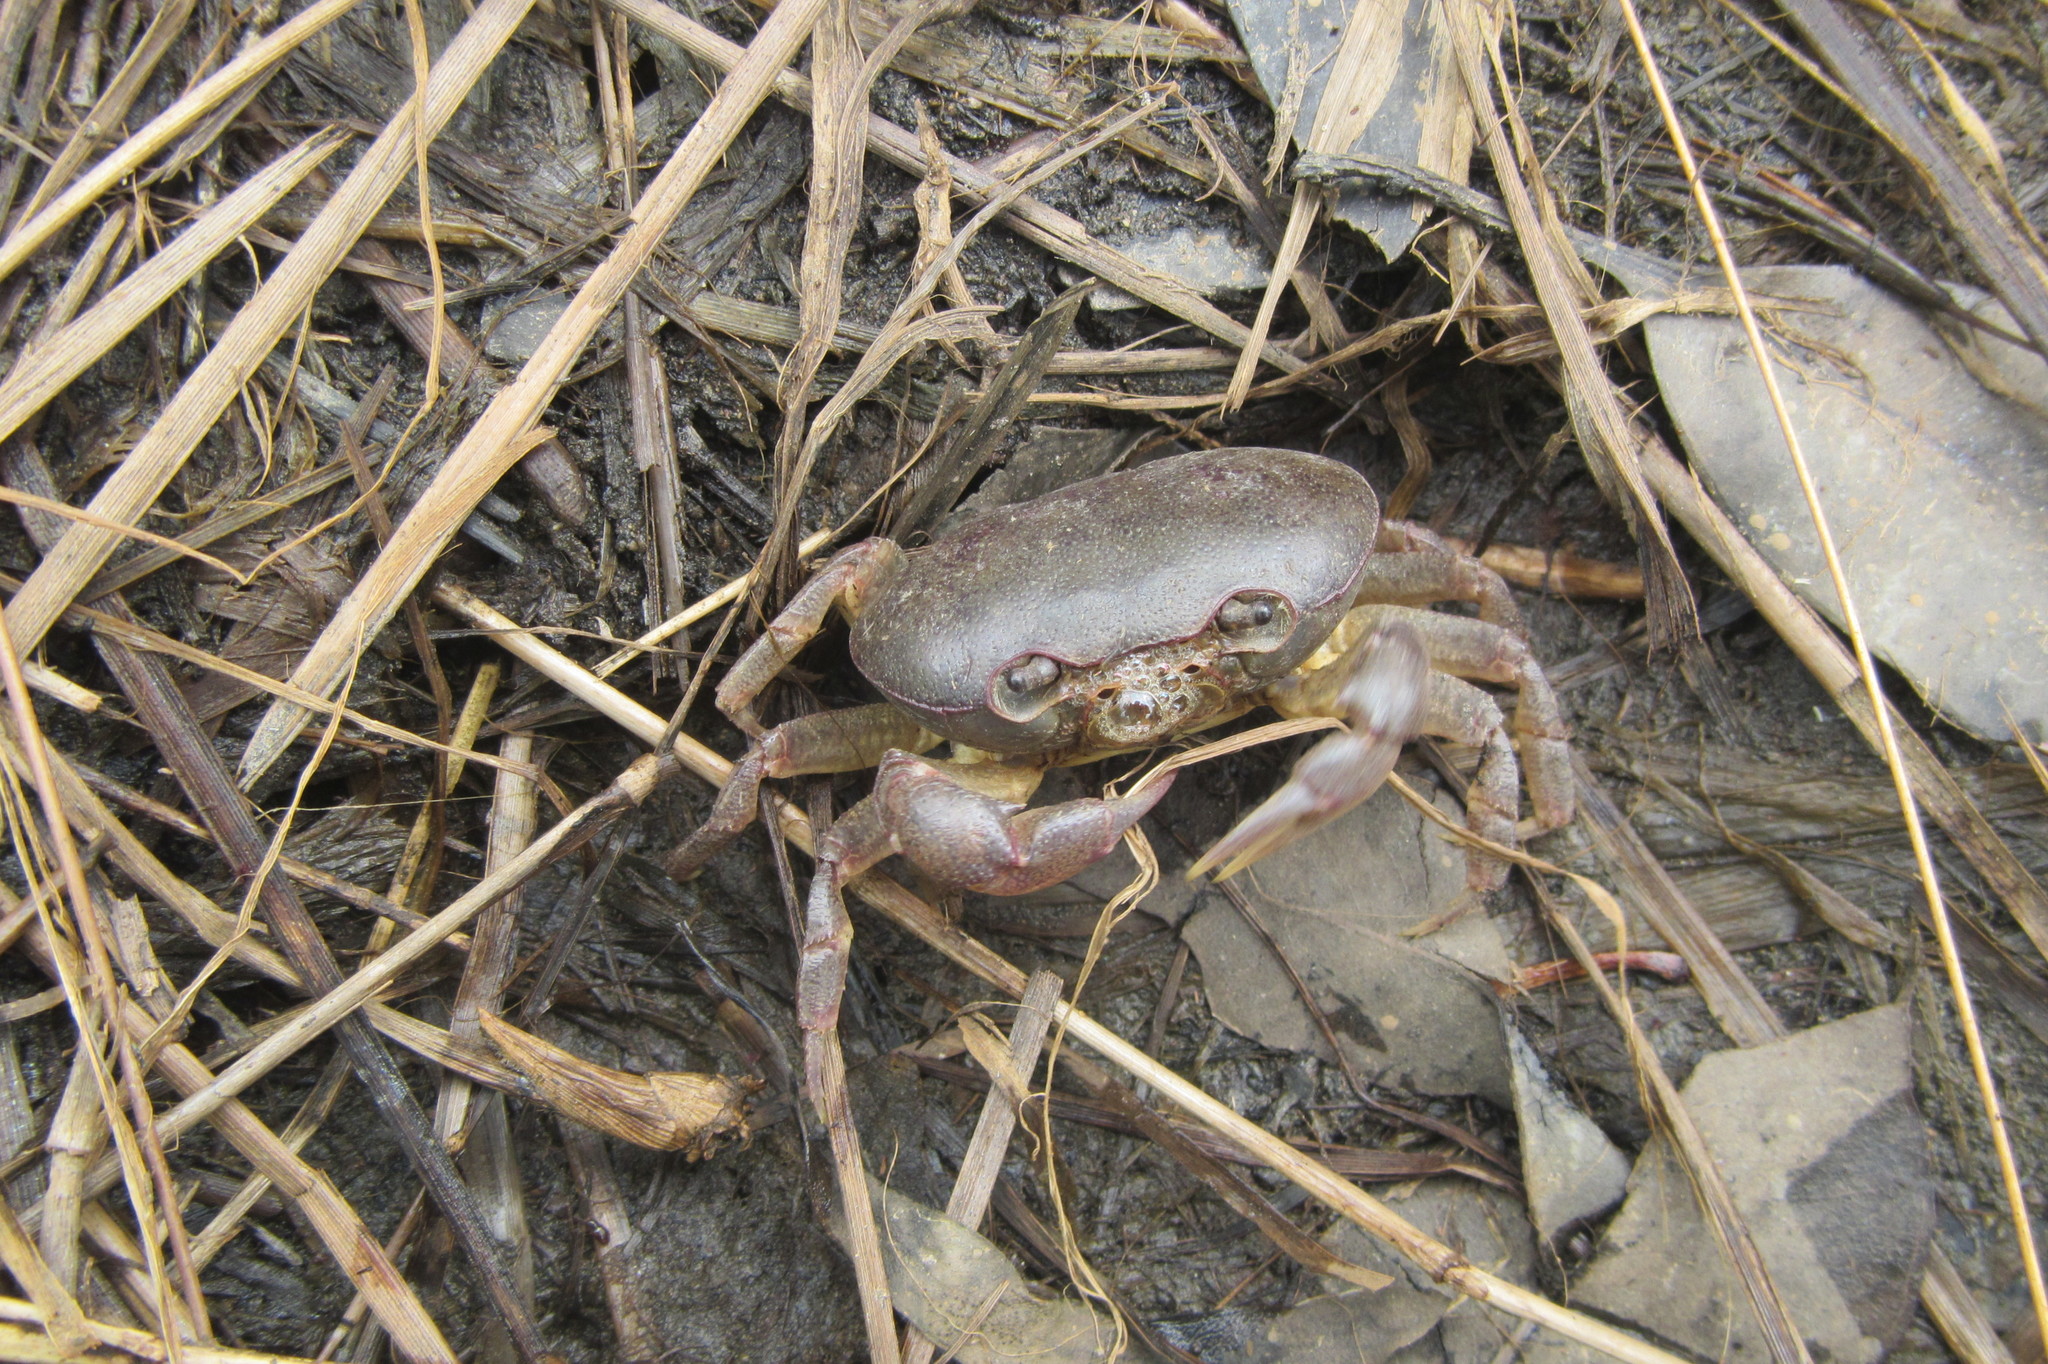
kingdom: Animalia
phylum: Arthropoda
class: Malacostraca
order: Decapoda
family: Gecarcinucidae
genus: Austrothelphusa
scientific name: Austrothelphusa transversa
